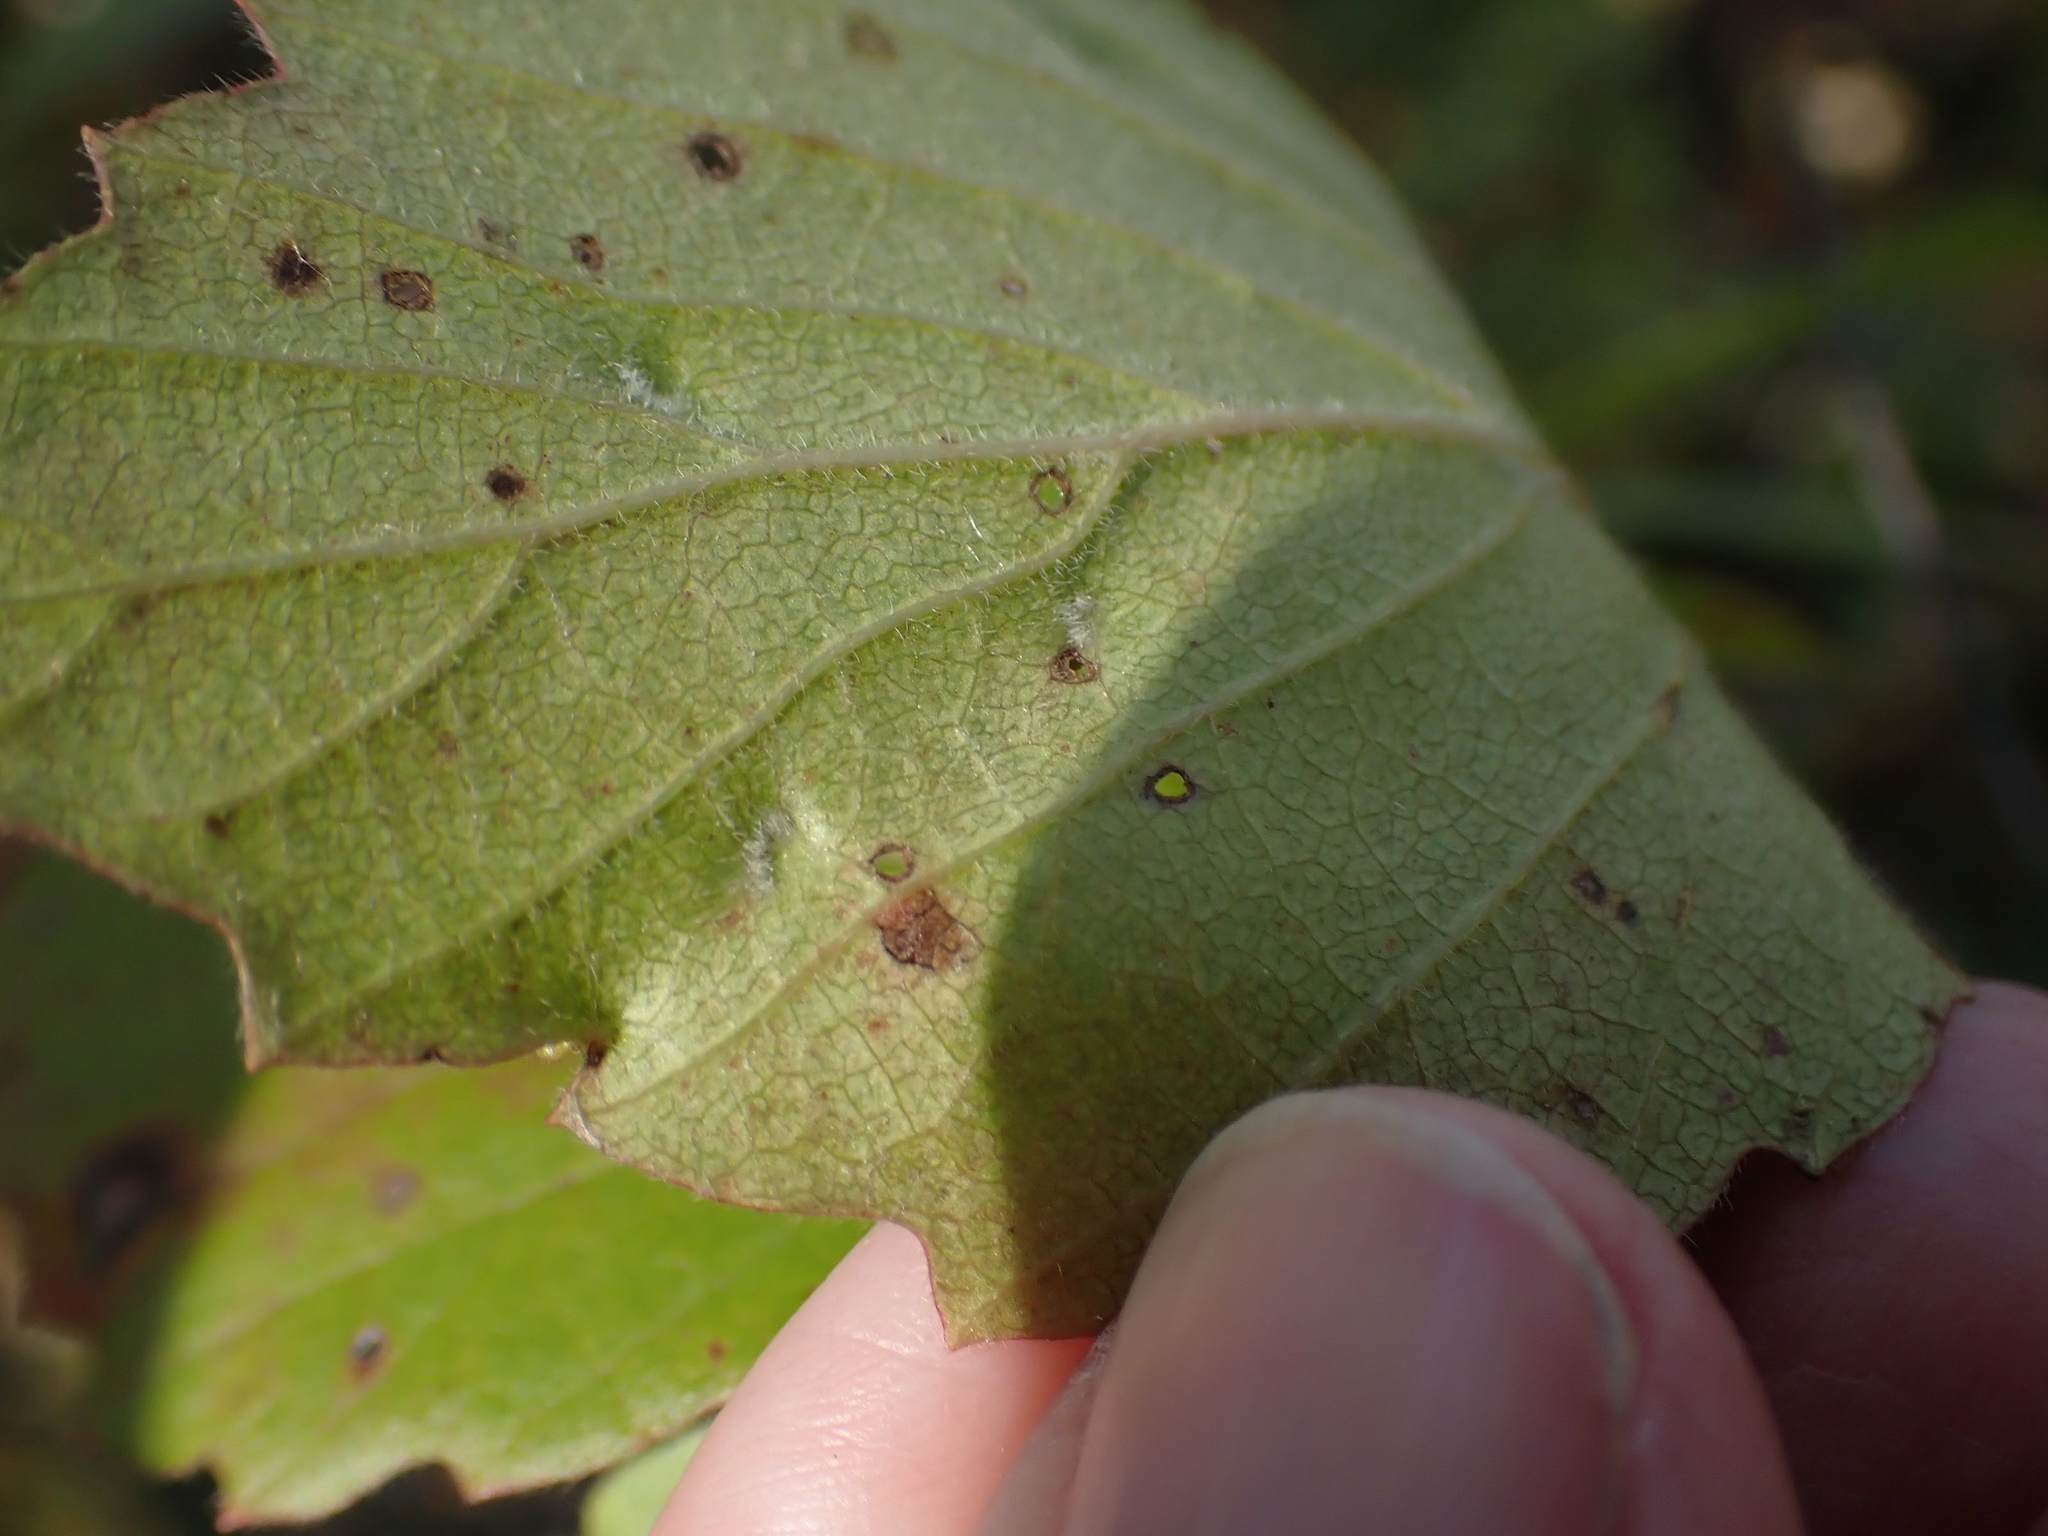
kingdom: Animalia
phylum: Arthropoda
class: Arachnida
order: Trombidiformes
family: Eriophyidae
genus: Eriophyes
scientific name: Eriophyes
